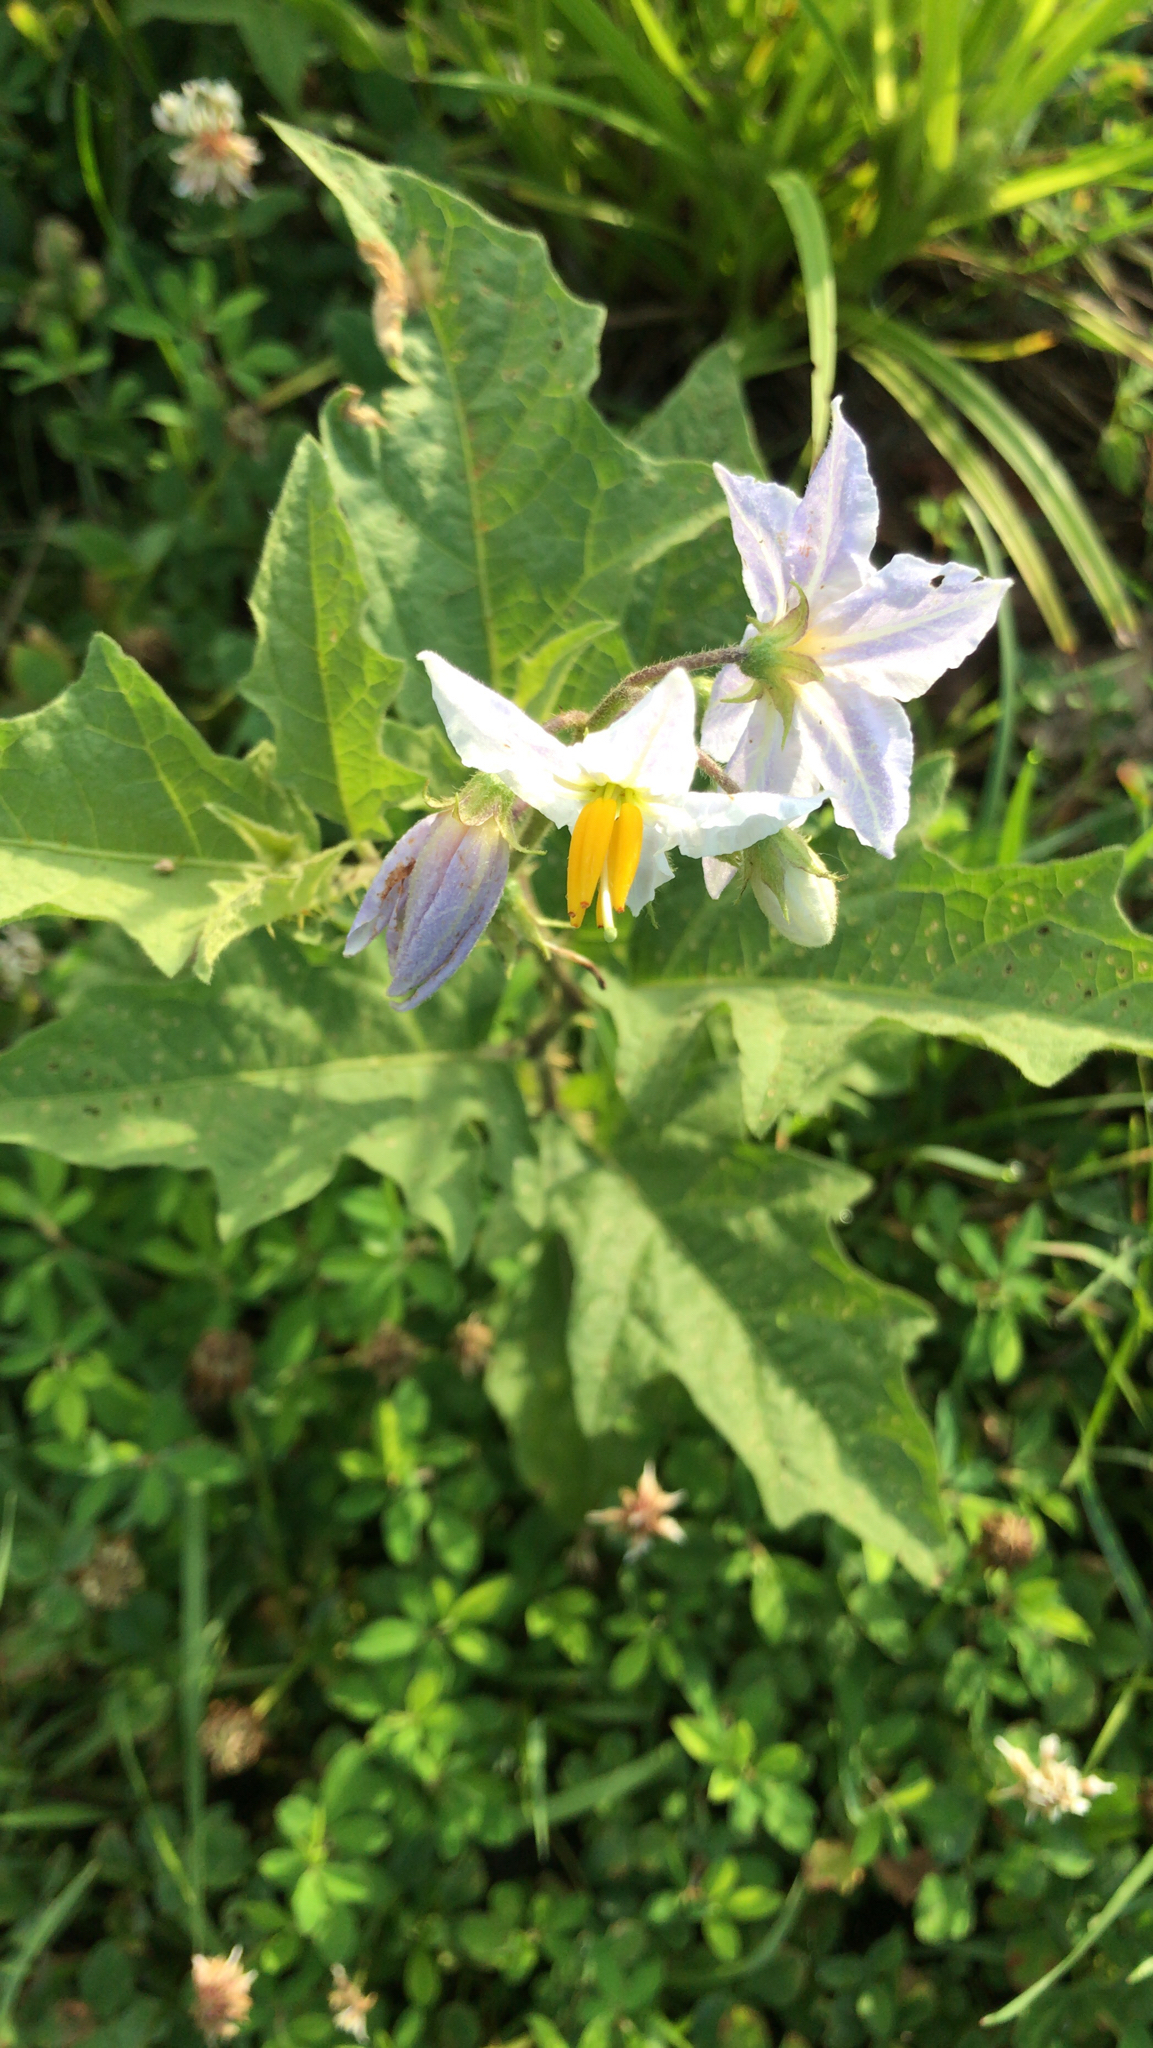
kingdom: Plantae
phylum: Tracheophyta
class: Magnoliopsida
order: Solanales
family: Solanaceae
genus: Solanum
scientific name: Solanum carolinense
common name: Horse-nettle
